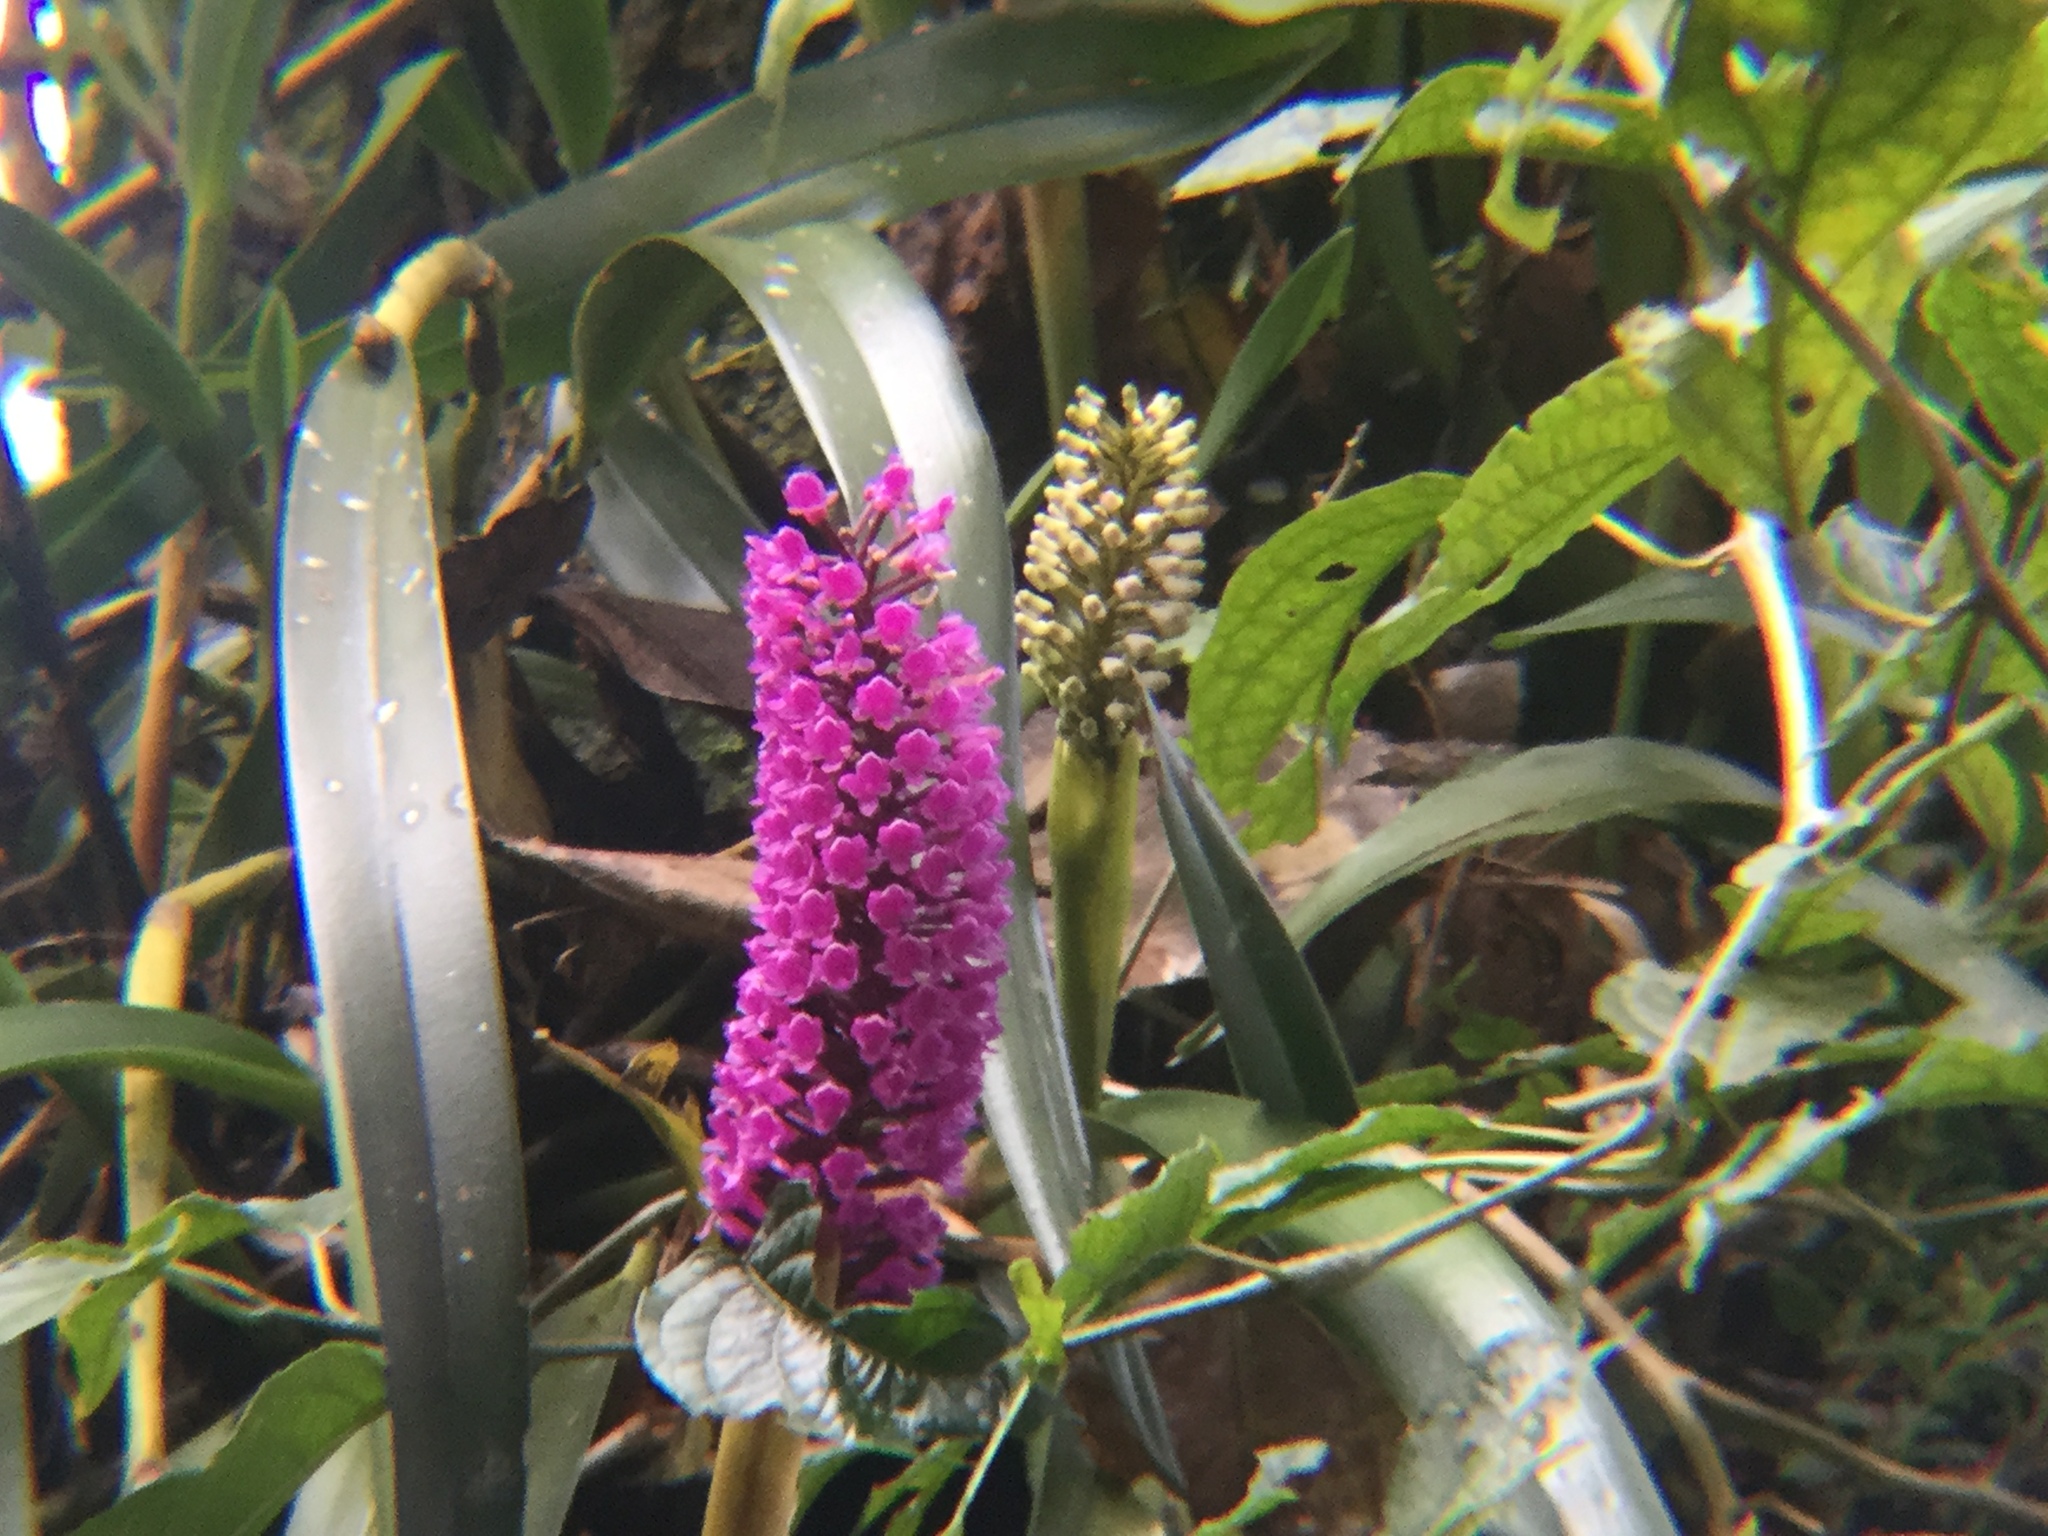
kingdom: Plantae
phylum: Tracheophyta
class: Liliopsida
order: Asparagales
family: Orchidaceae
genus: Arpophyllum
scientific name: Arpophyllum giganteum
